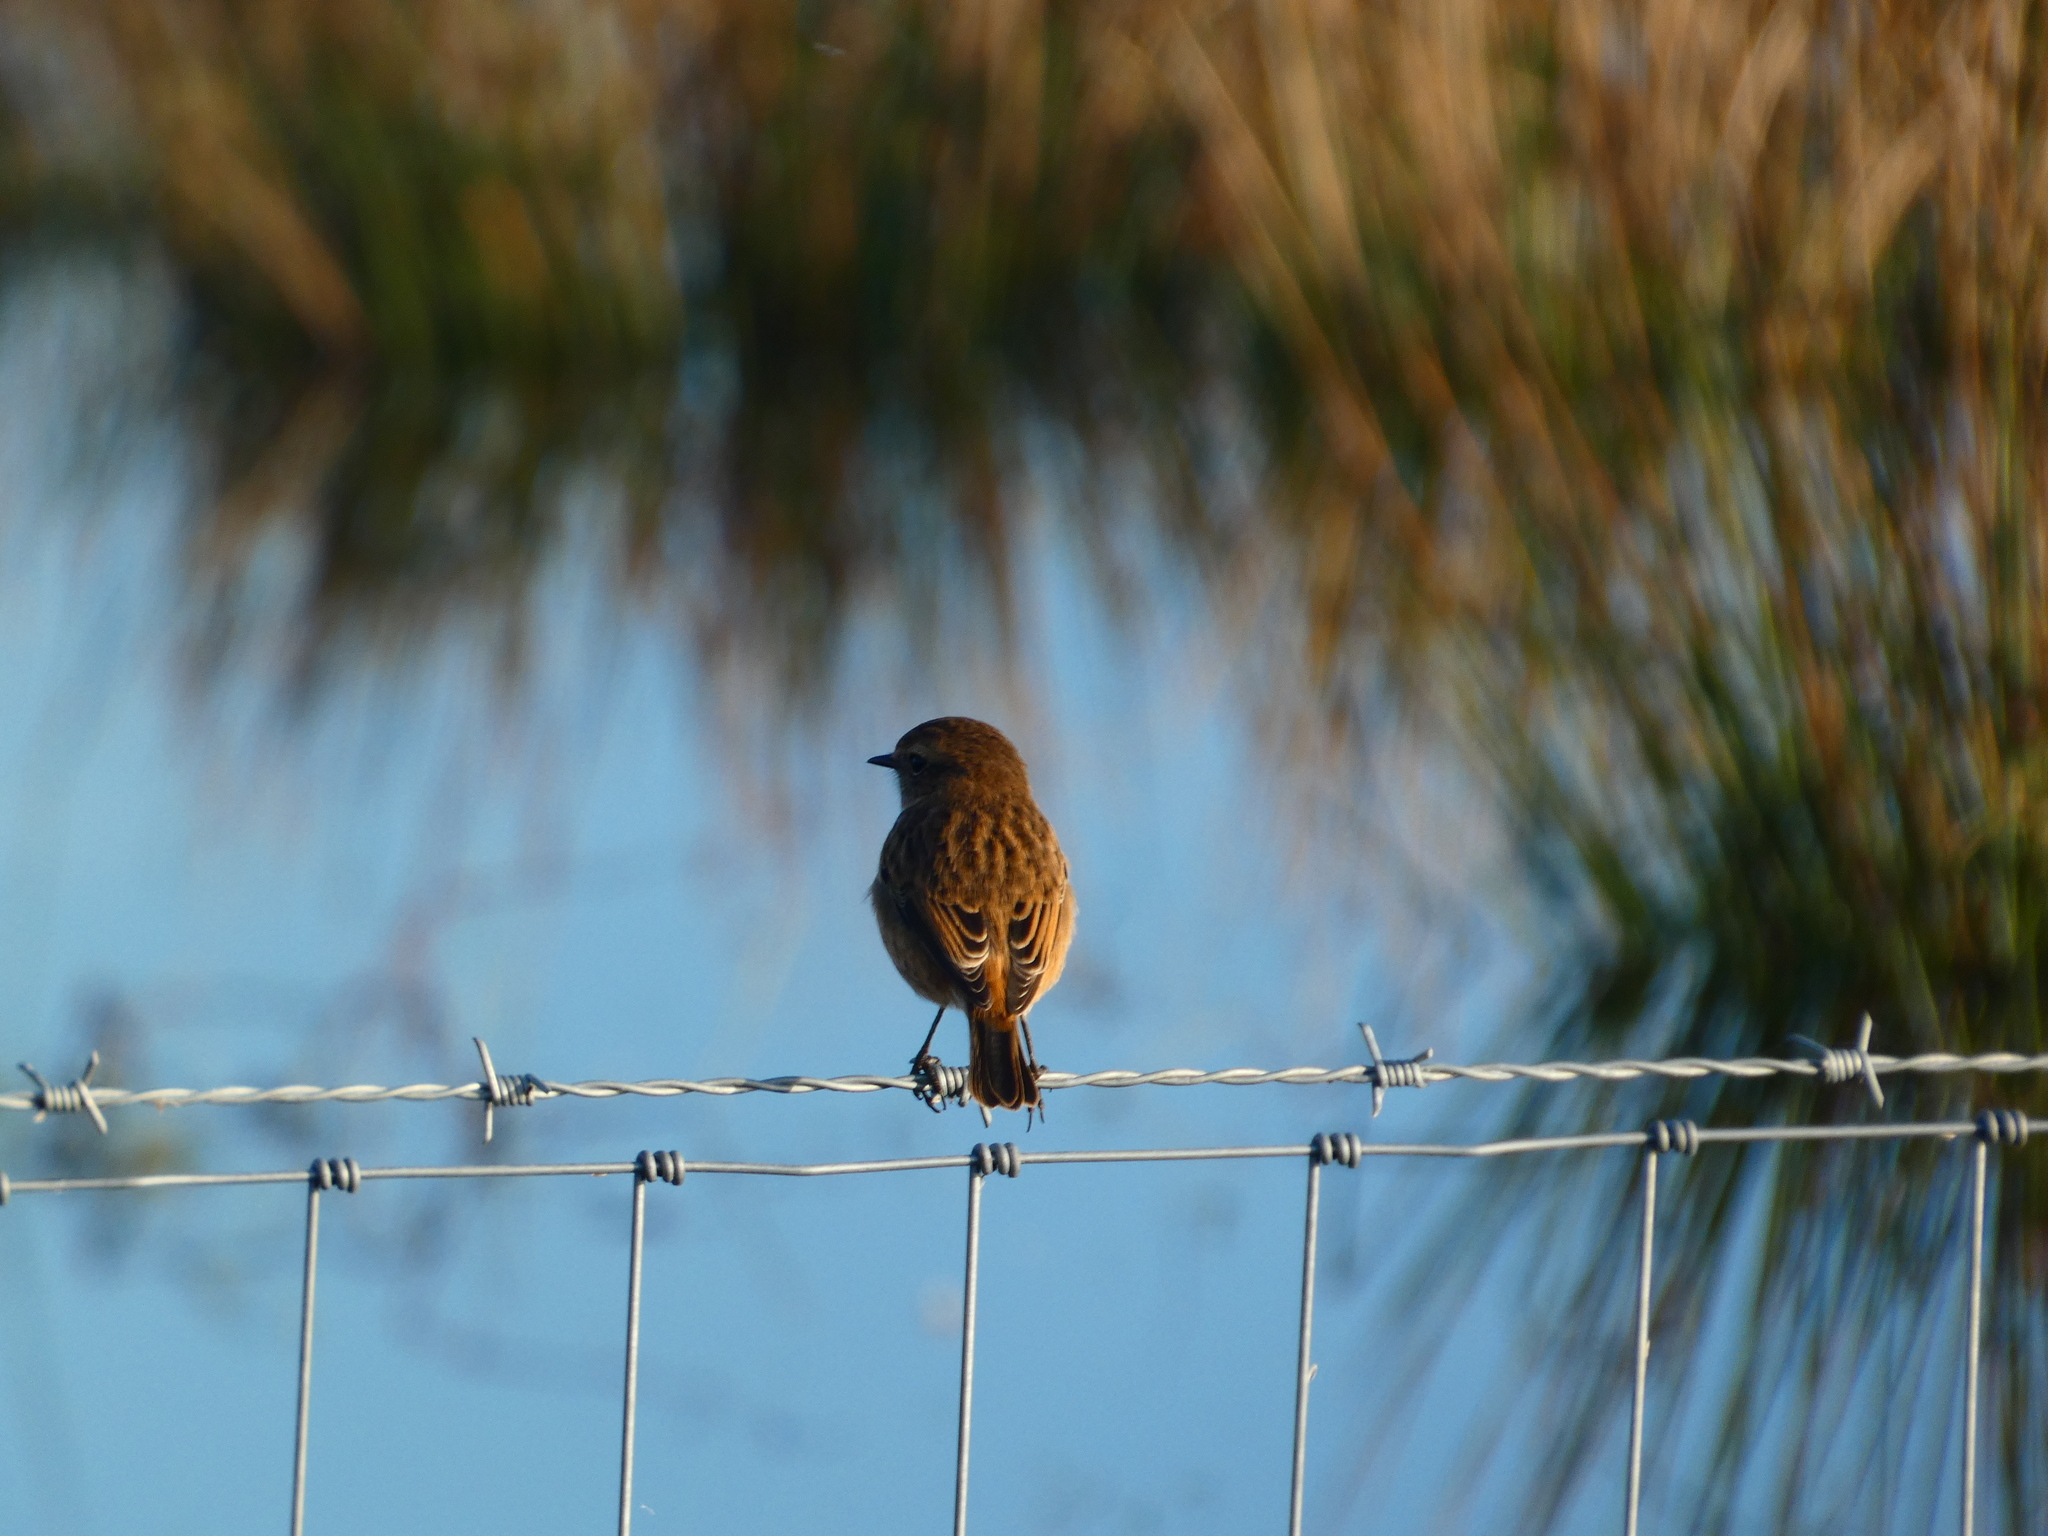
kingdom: Animalia
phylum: Chordata
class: Aves
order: Passeriformes
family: Muscicapidae
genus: Saxicola
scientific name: Saxicola rubicola
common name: European stonechat
